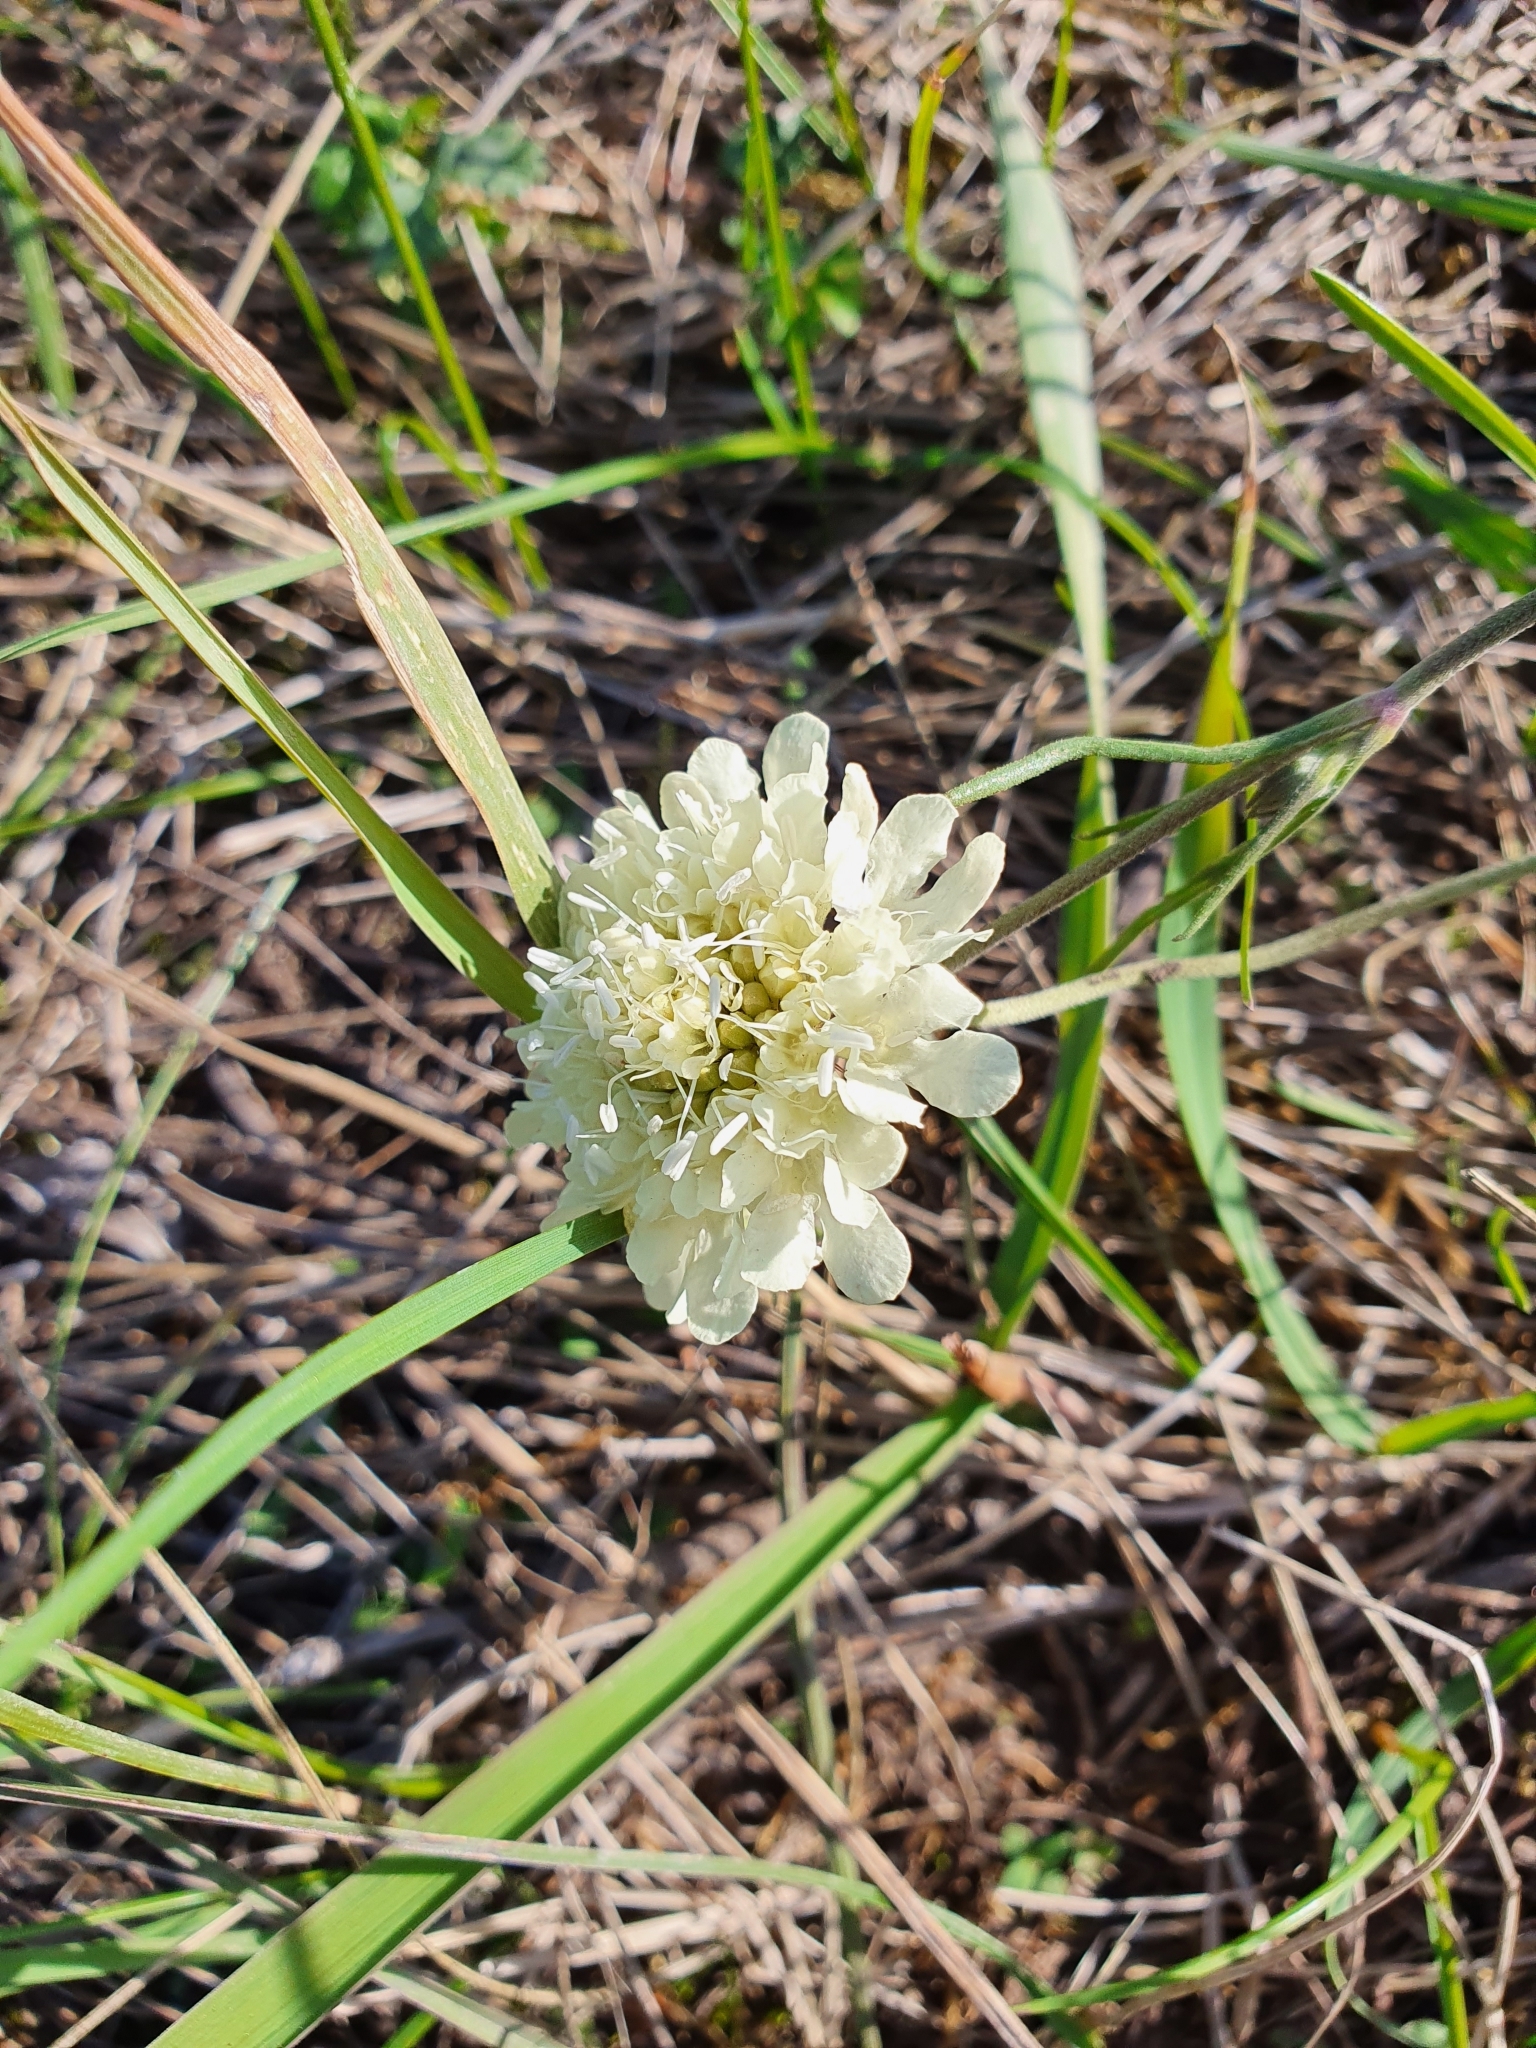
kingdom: Plantae
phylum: Tracheophyta
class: Magnoliopsida
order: Dipsacales
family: Caprifoliaceae
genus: Scabiosa
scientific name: Scabiosa ochroleuca
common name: Cream pincushions
